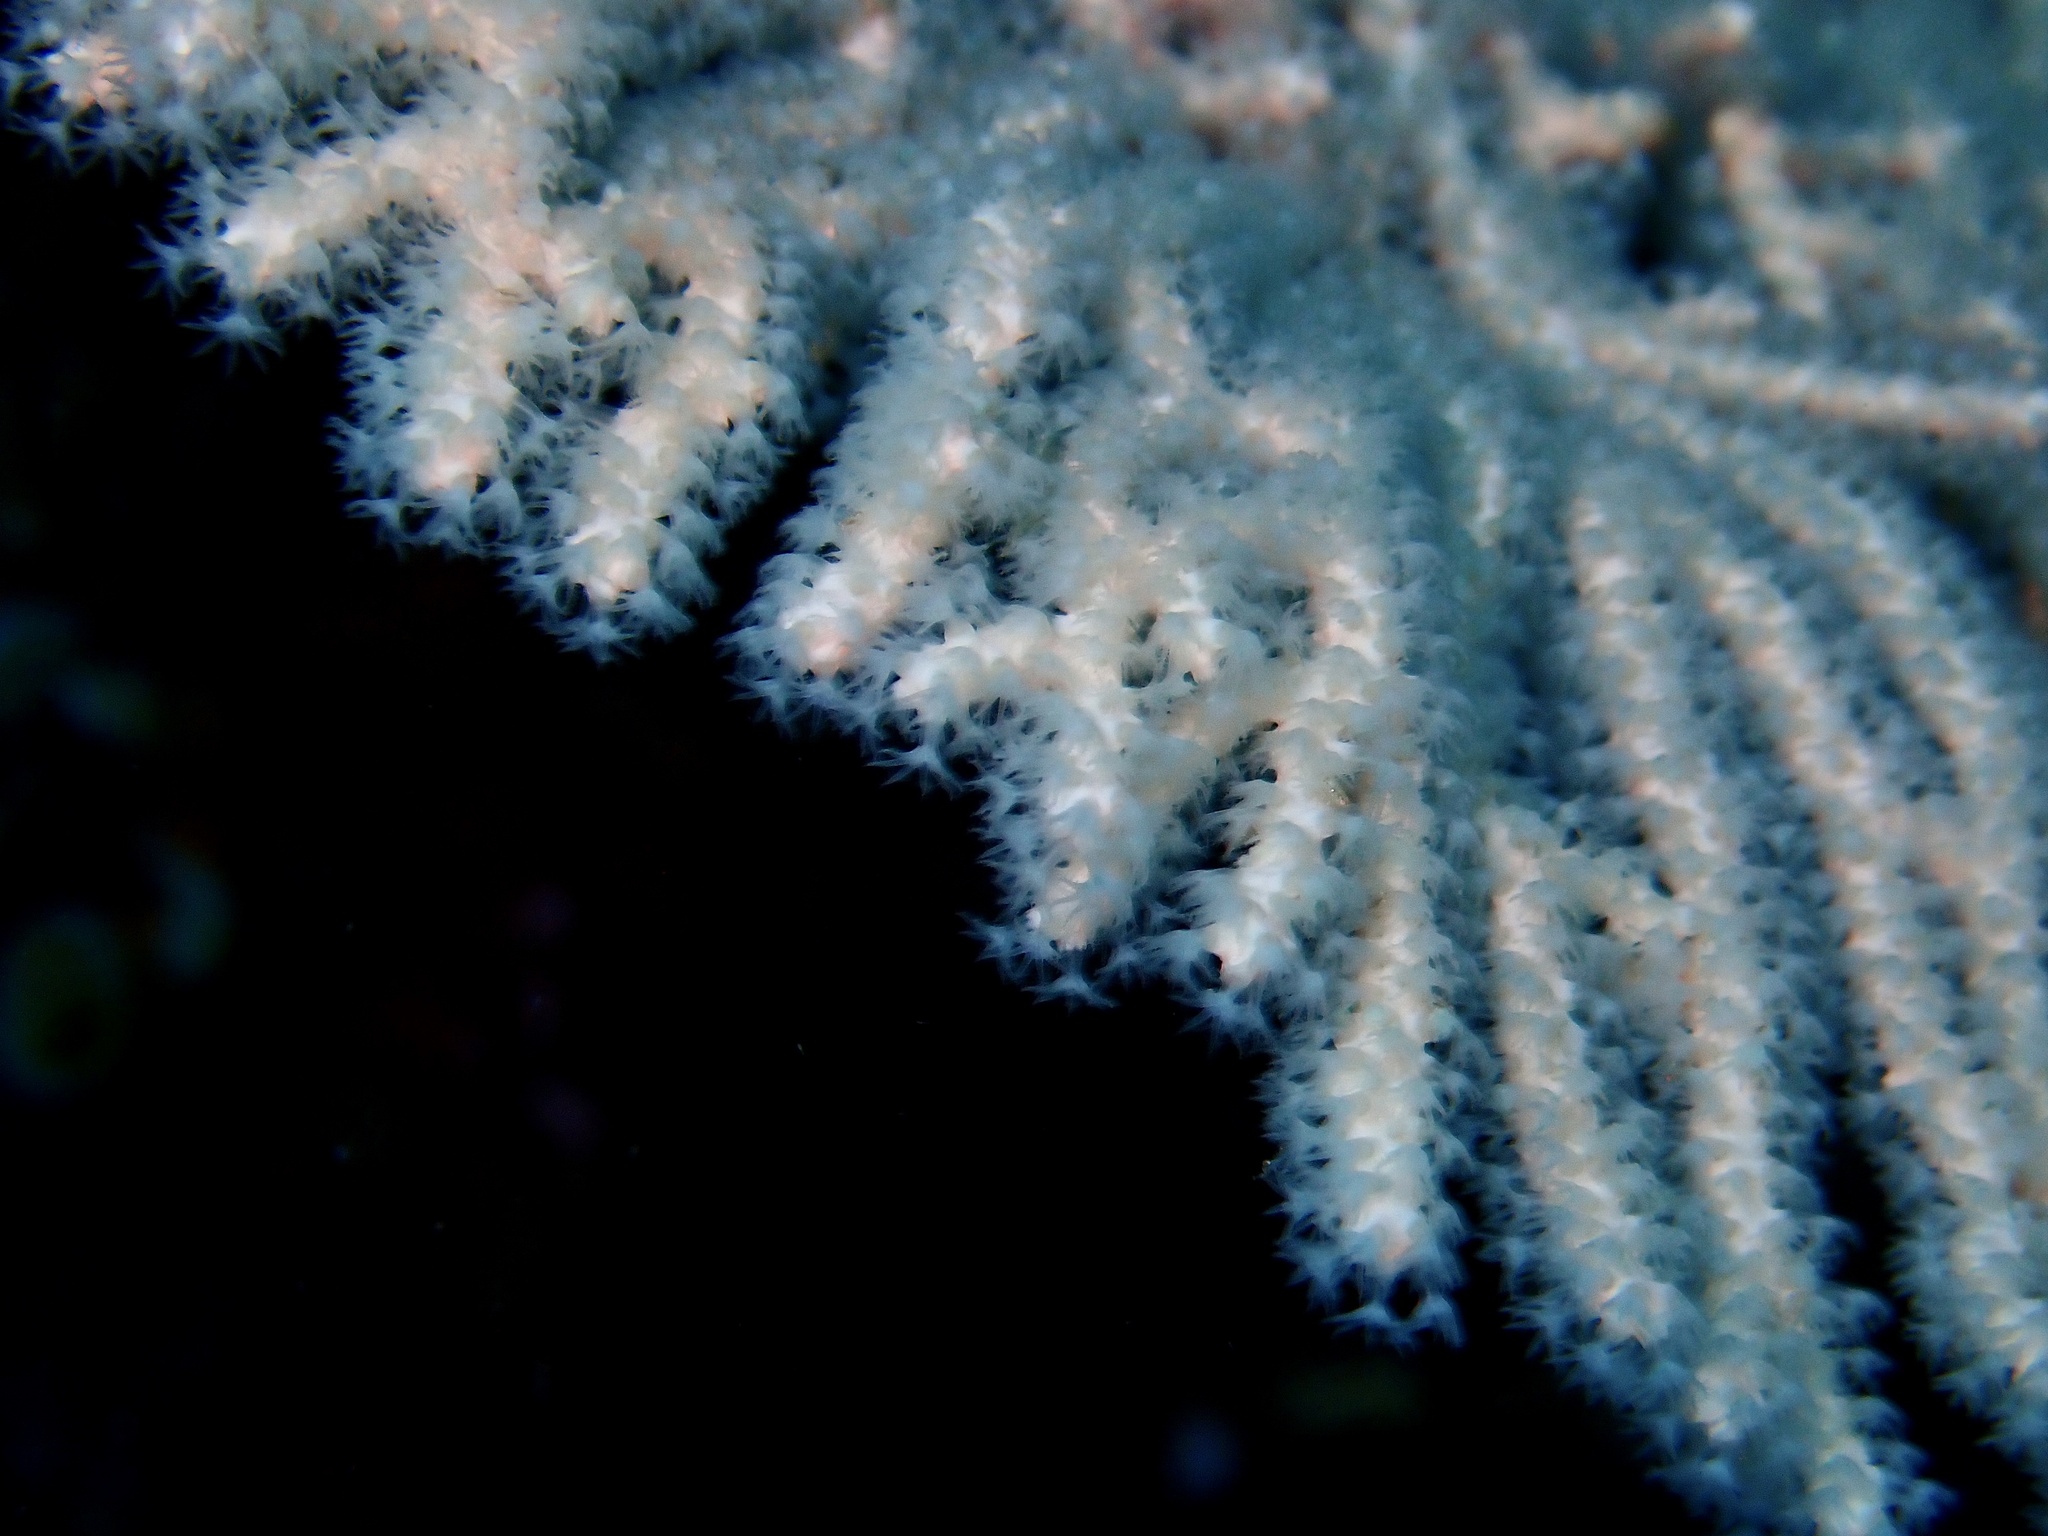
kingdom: Animalia
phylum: Cnidaria
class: Anthozoa
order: Malacalcyonacea
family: Subergorgiidae
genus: Annella
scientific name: Annella mollis
